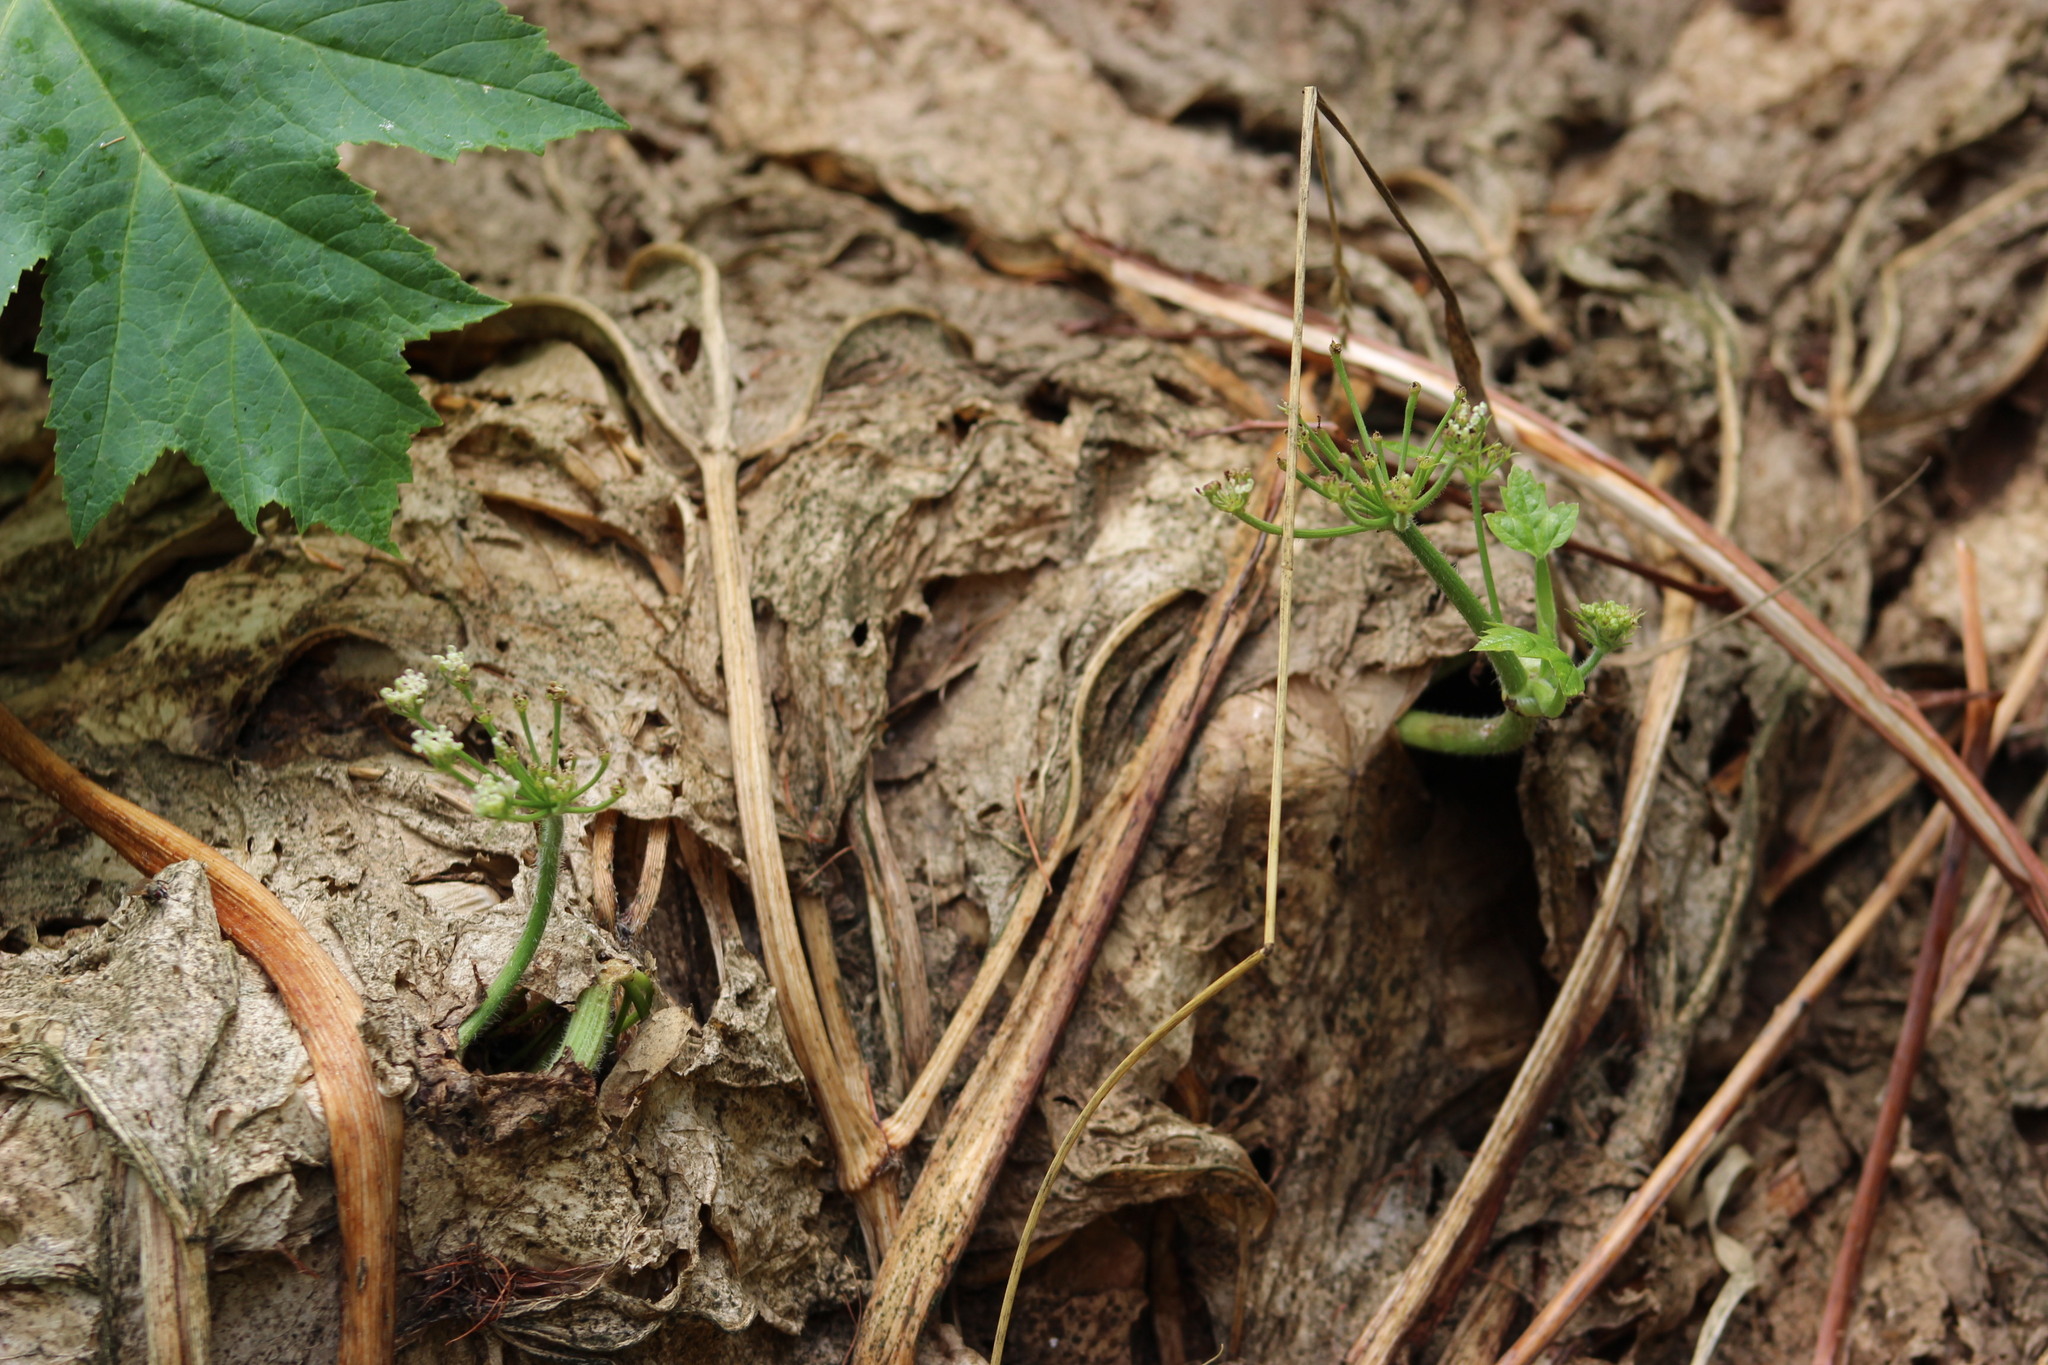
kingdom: Plantae
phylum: Tracheophyta
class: Magnoliopsida
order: Apiales
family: Apiaceae
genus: Heracleum
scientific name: Heracleum sosnowskyi
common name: Sosnowsky's hogweed
